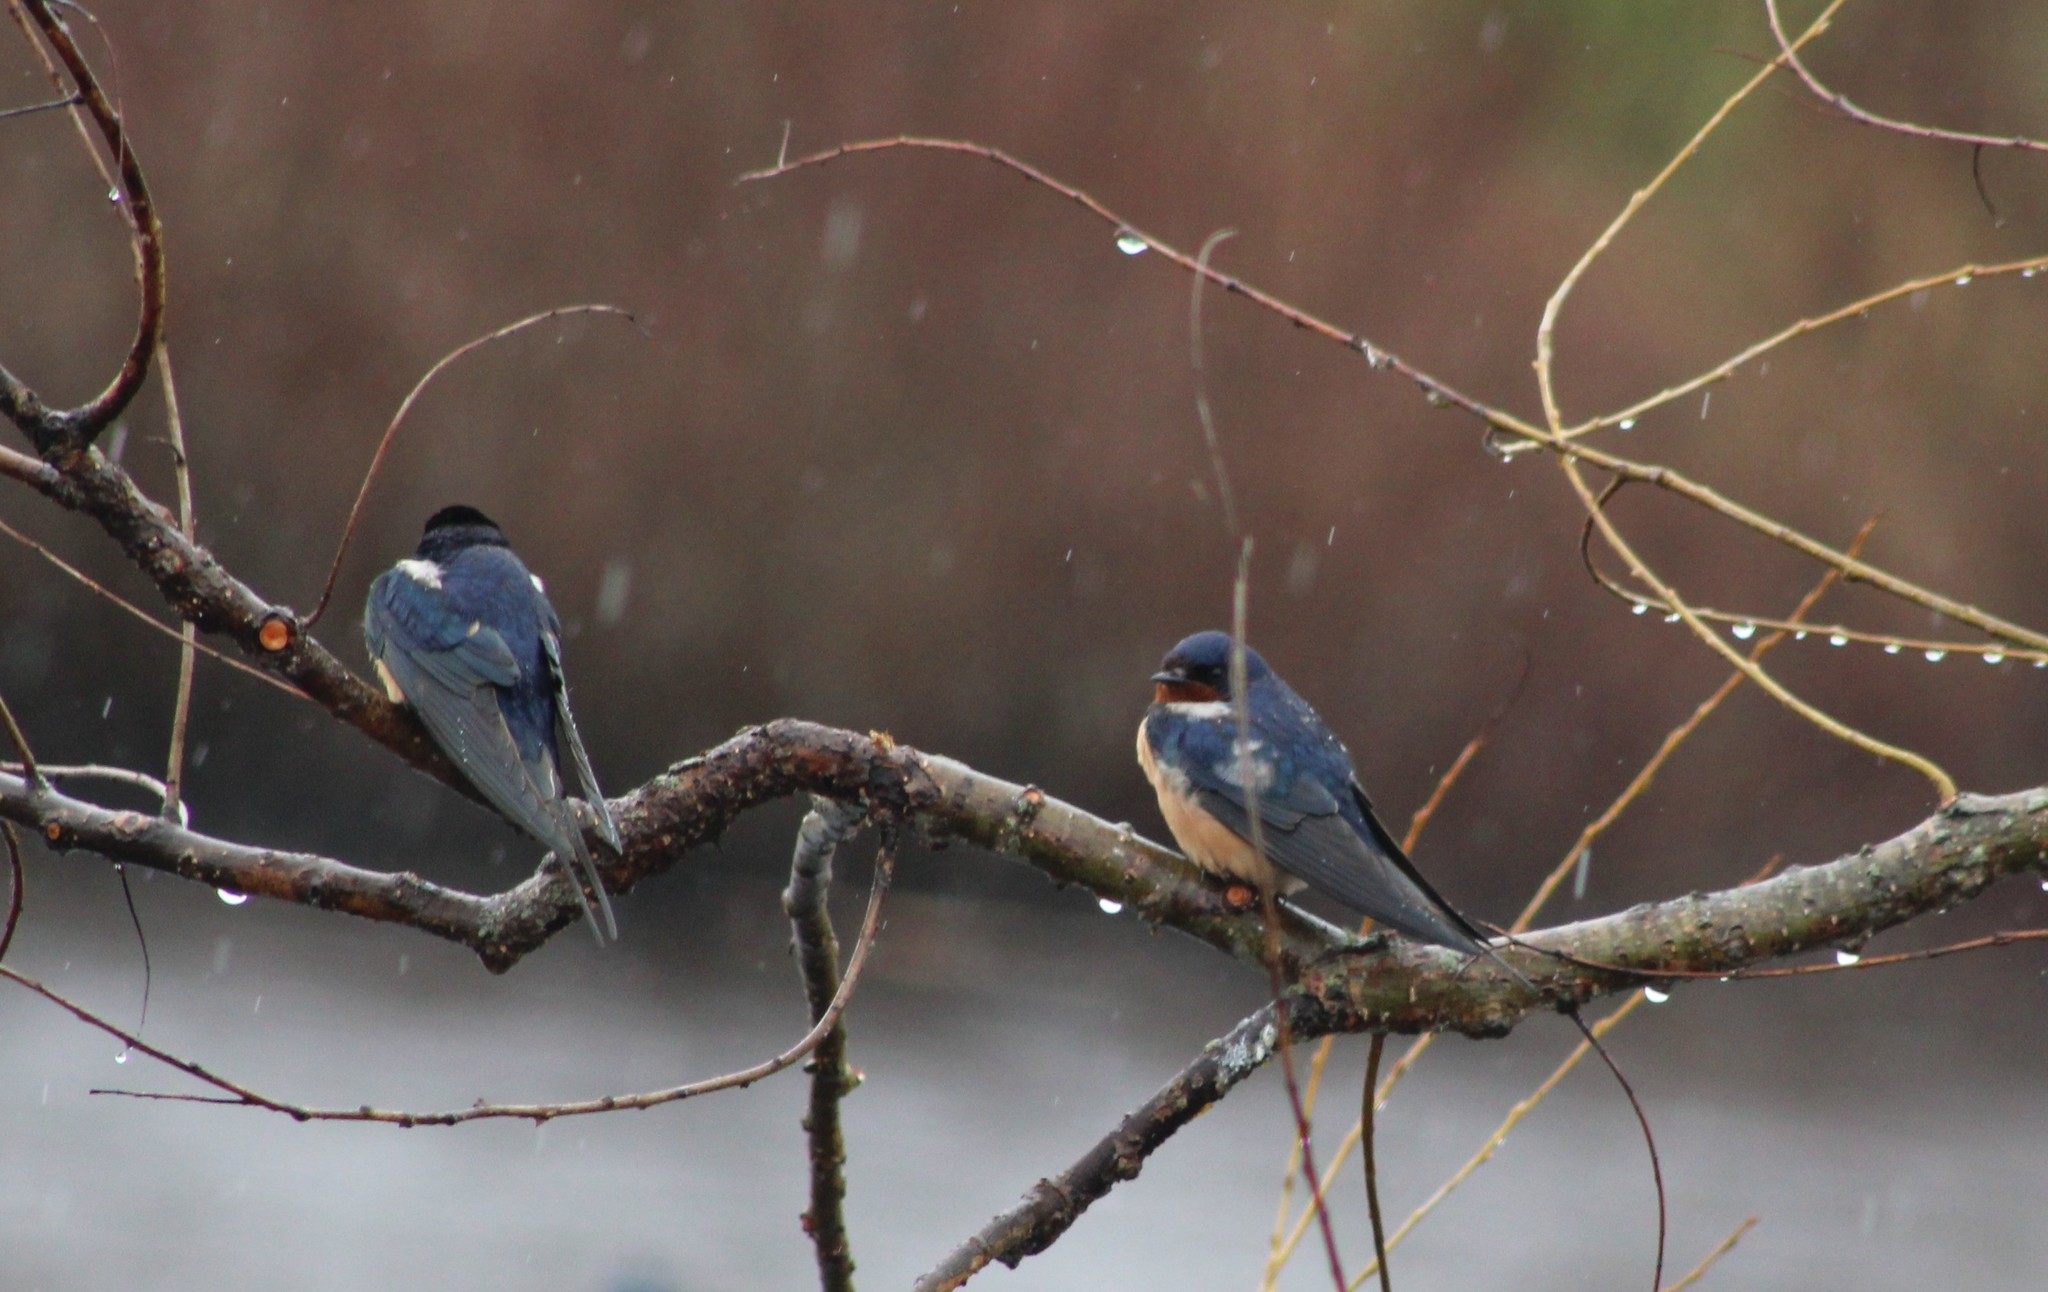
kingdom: Animalia
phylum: Chordata
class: Aves
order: Passeriformes
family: Hirundinidae
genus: Hirundo
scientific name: Hirundo rustica
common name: Barn swallow
